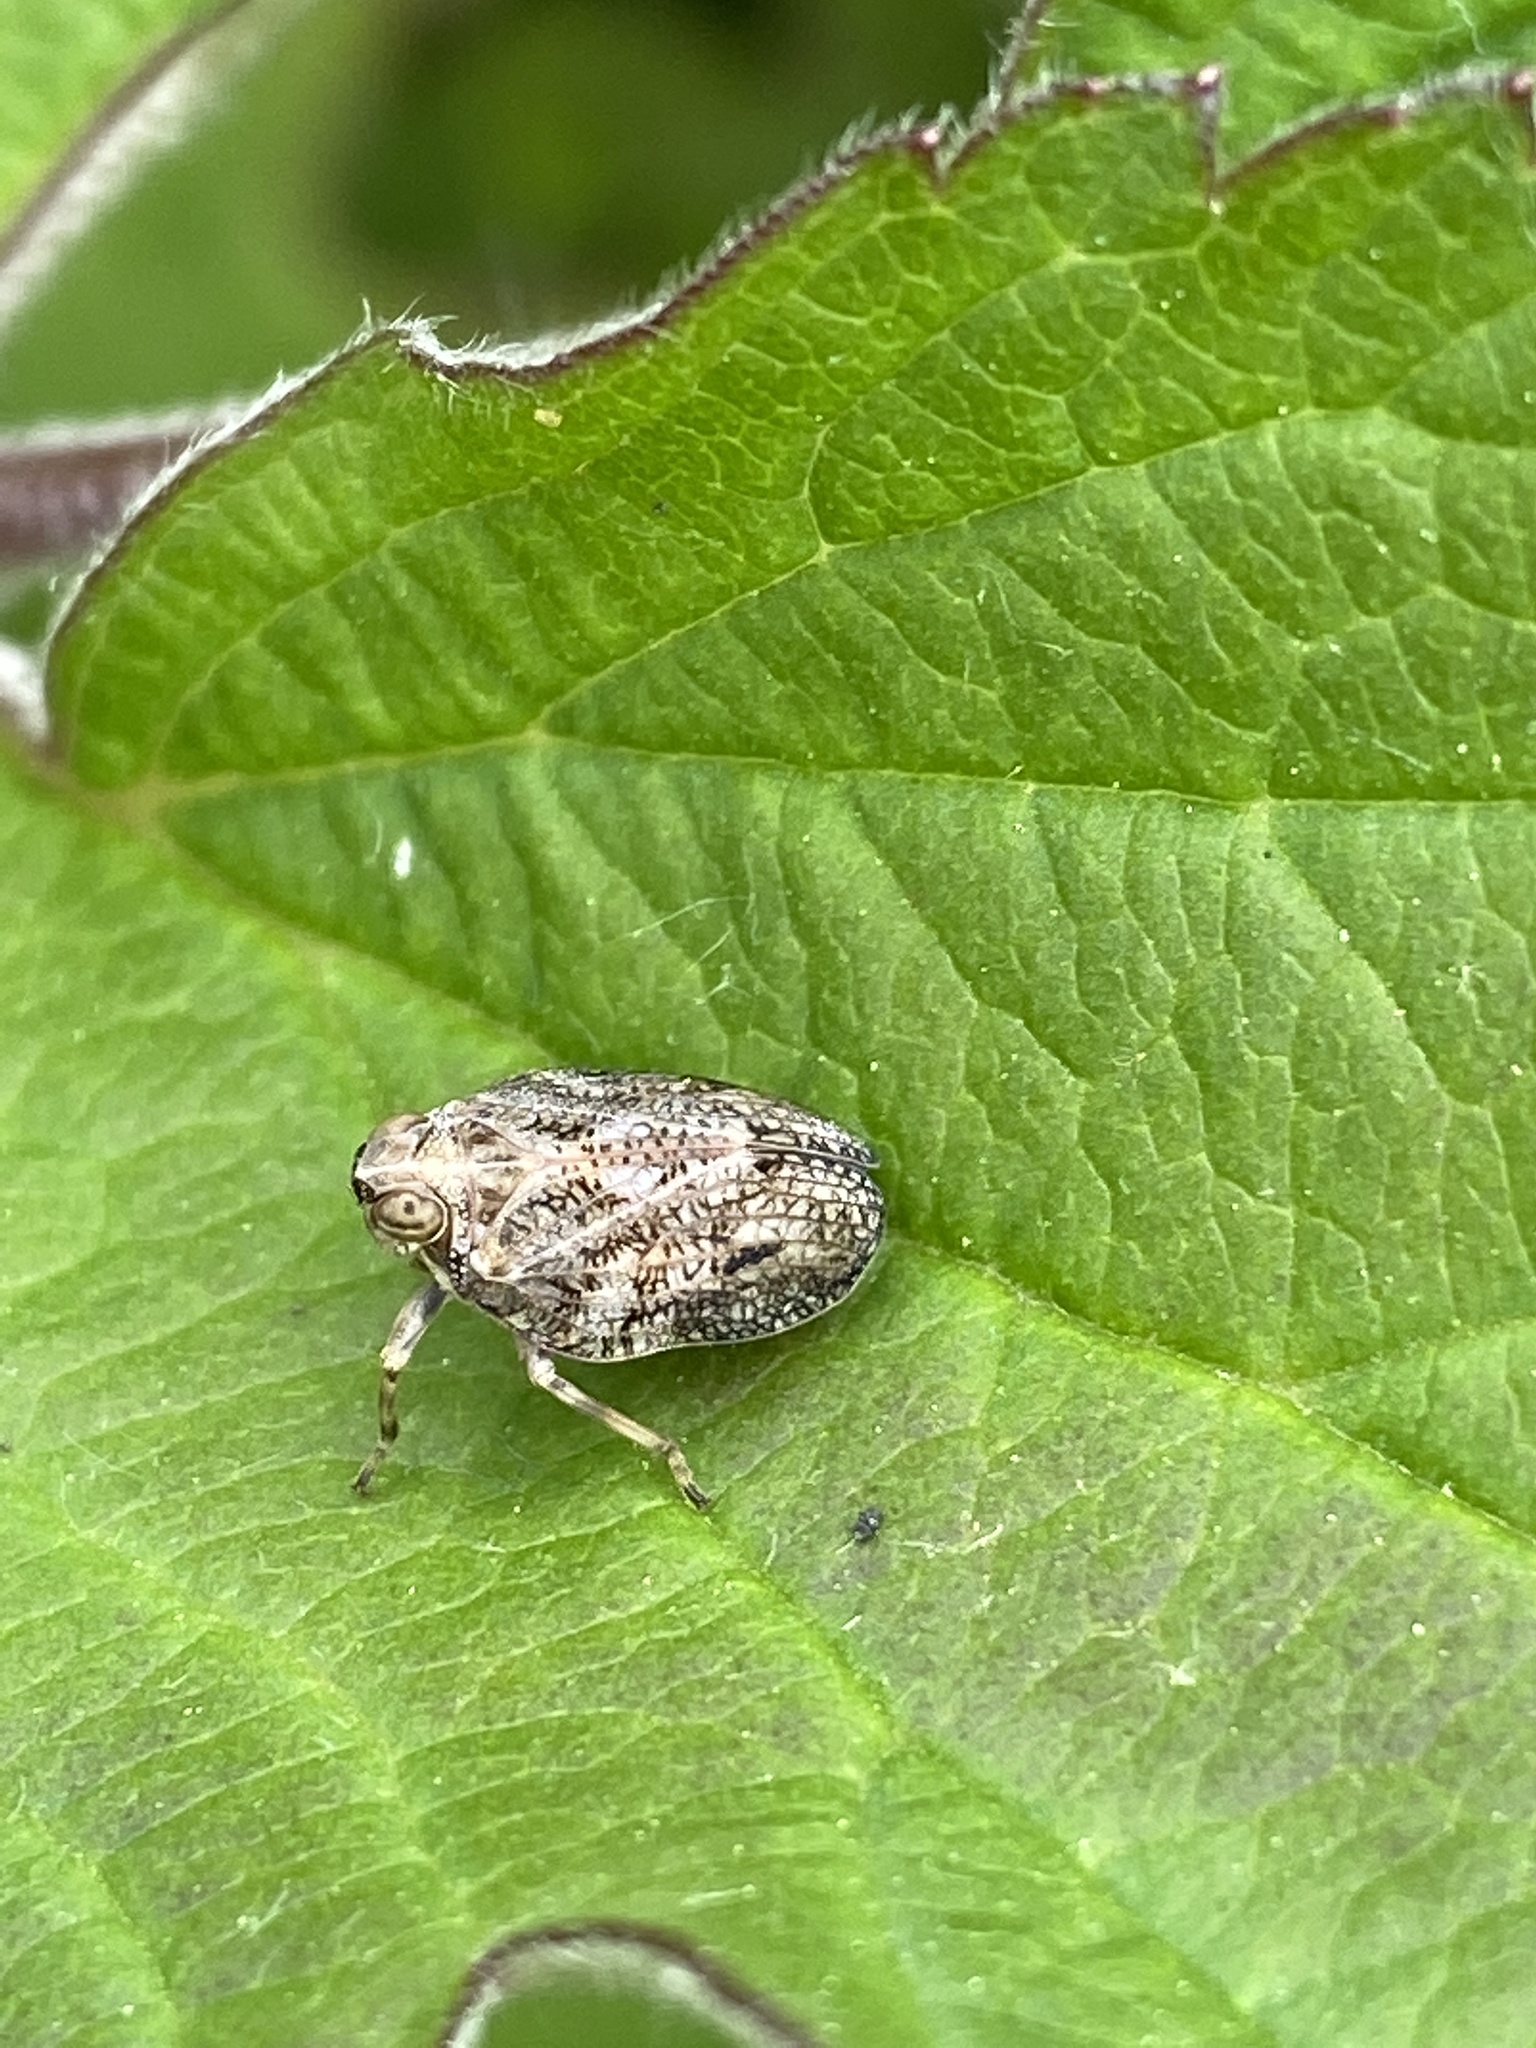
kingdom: Animalia
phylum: Arthropoda
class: Insecta
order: Hemiptera
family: Issidae
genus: Issus
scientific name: Issus coleoptratus
